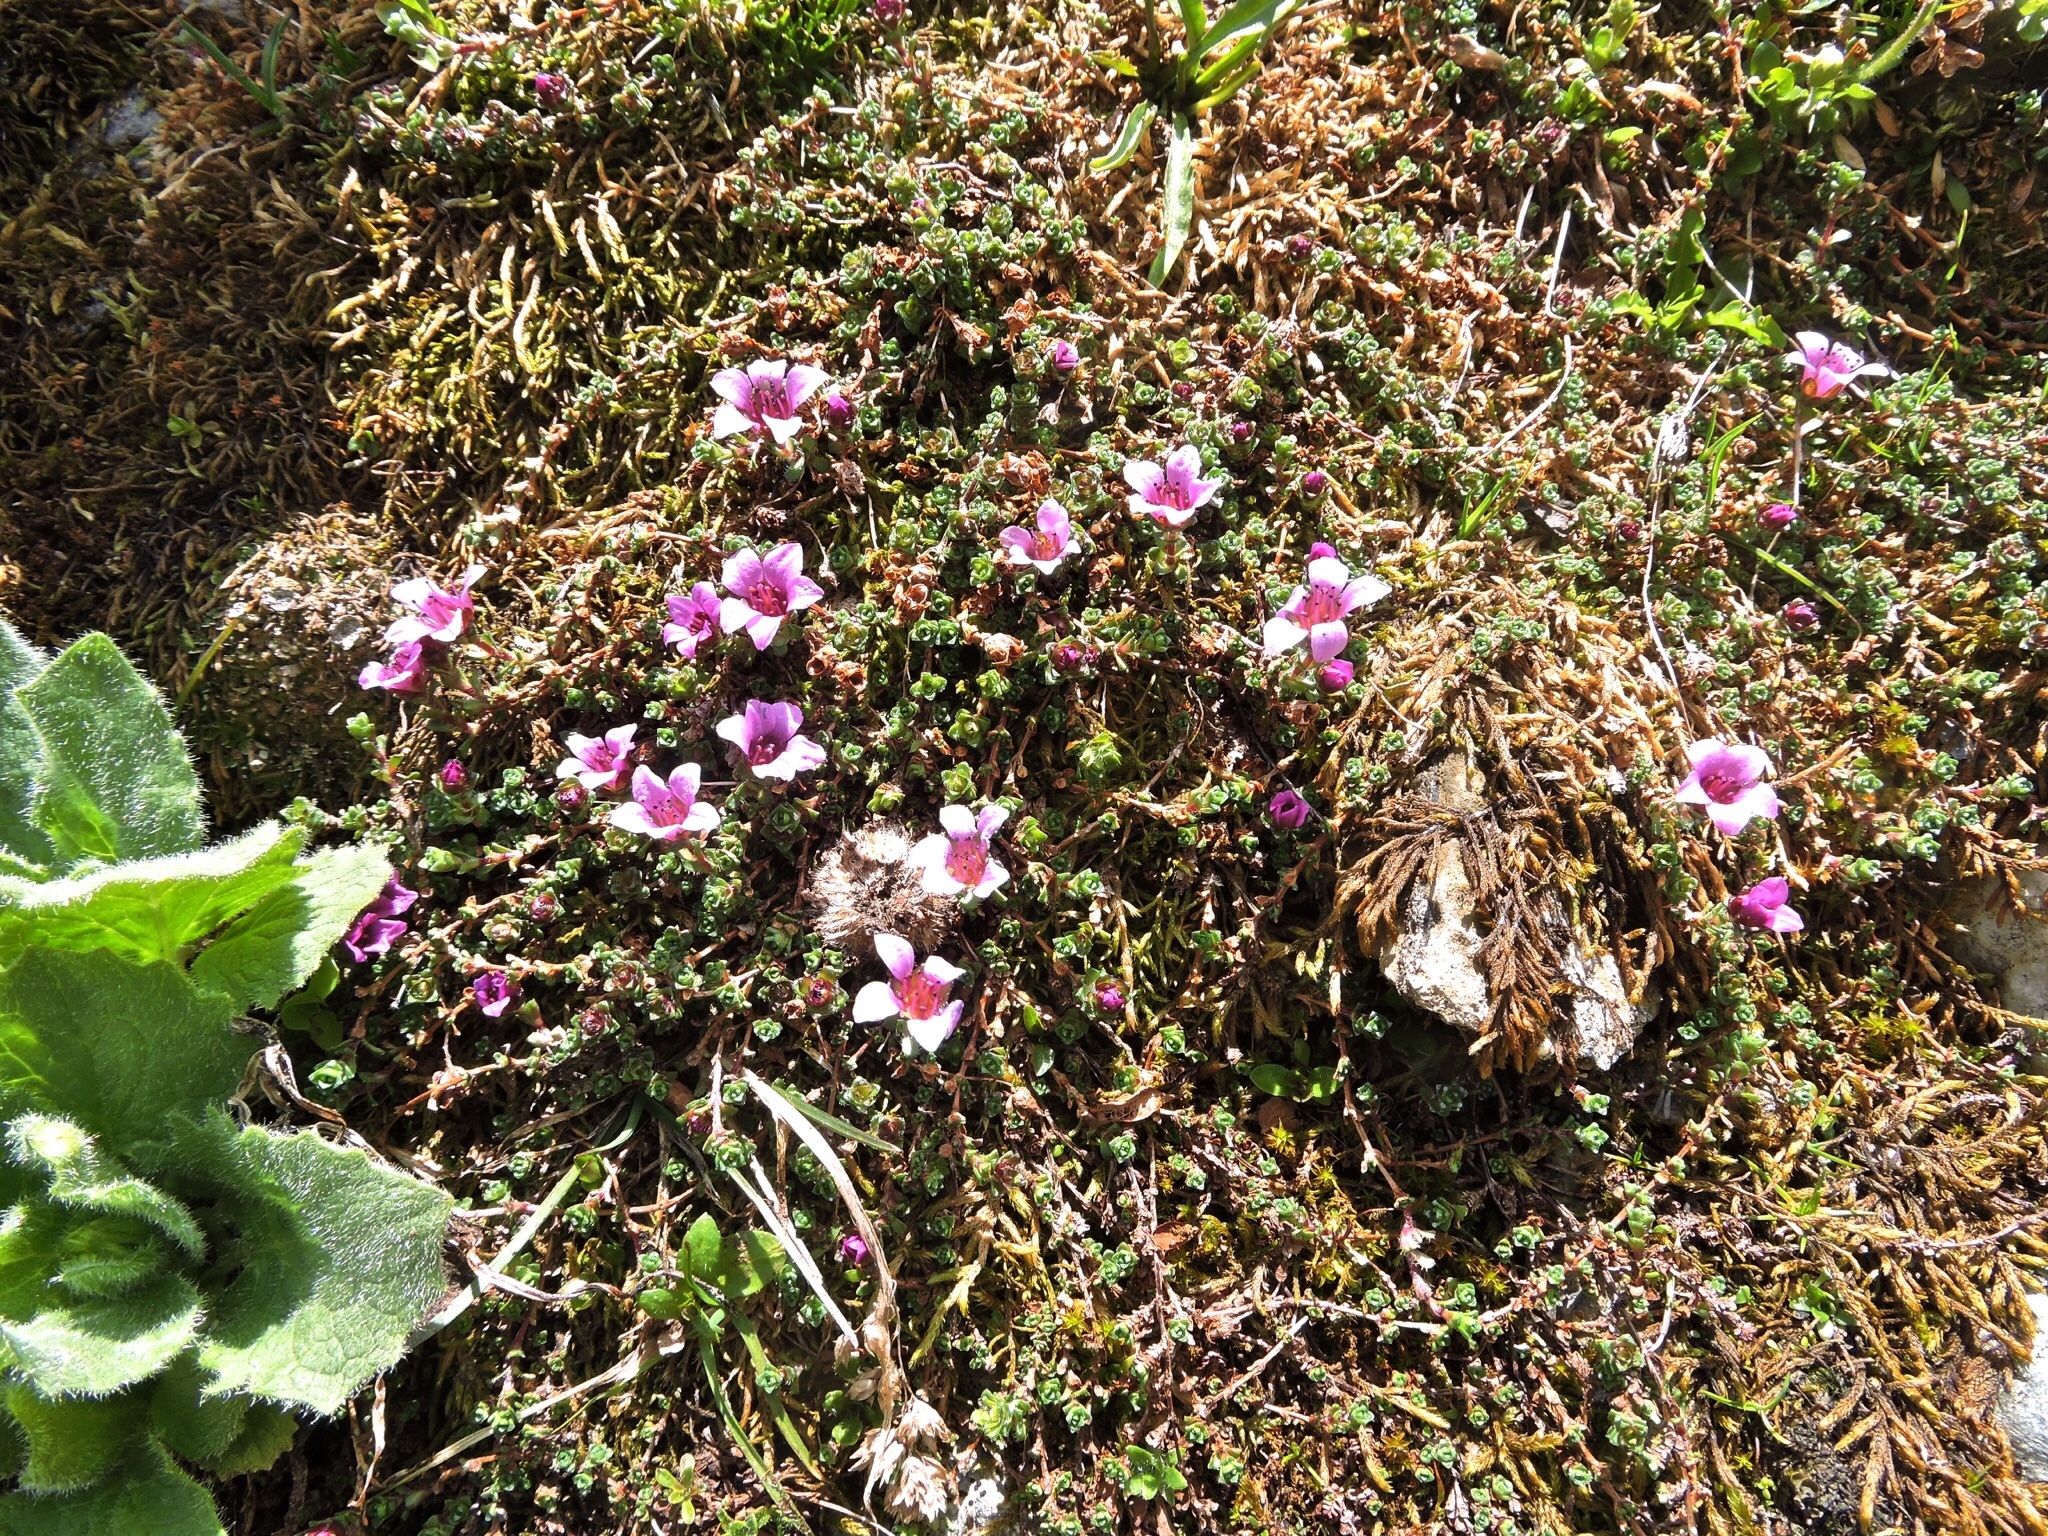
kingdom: Plantae
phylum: Tracheophyta
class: Magnoliopsida
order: Saxifragales
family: Saxifragaceae
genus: Saxifraga
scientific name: Saxifraga oppositifolia
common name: Purple saxifrage
